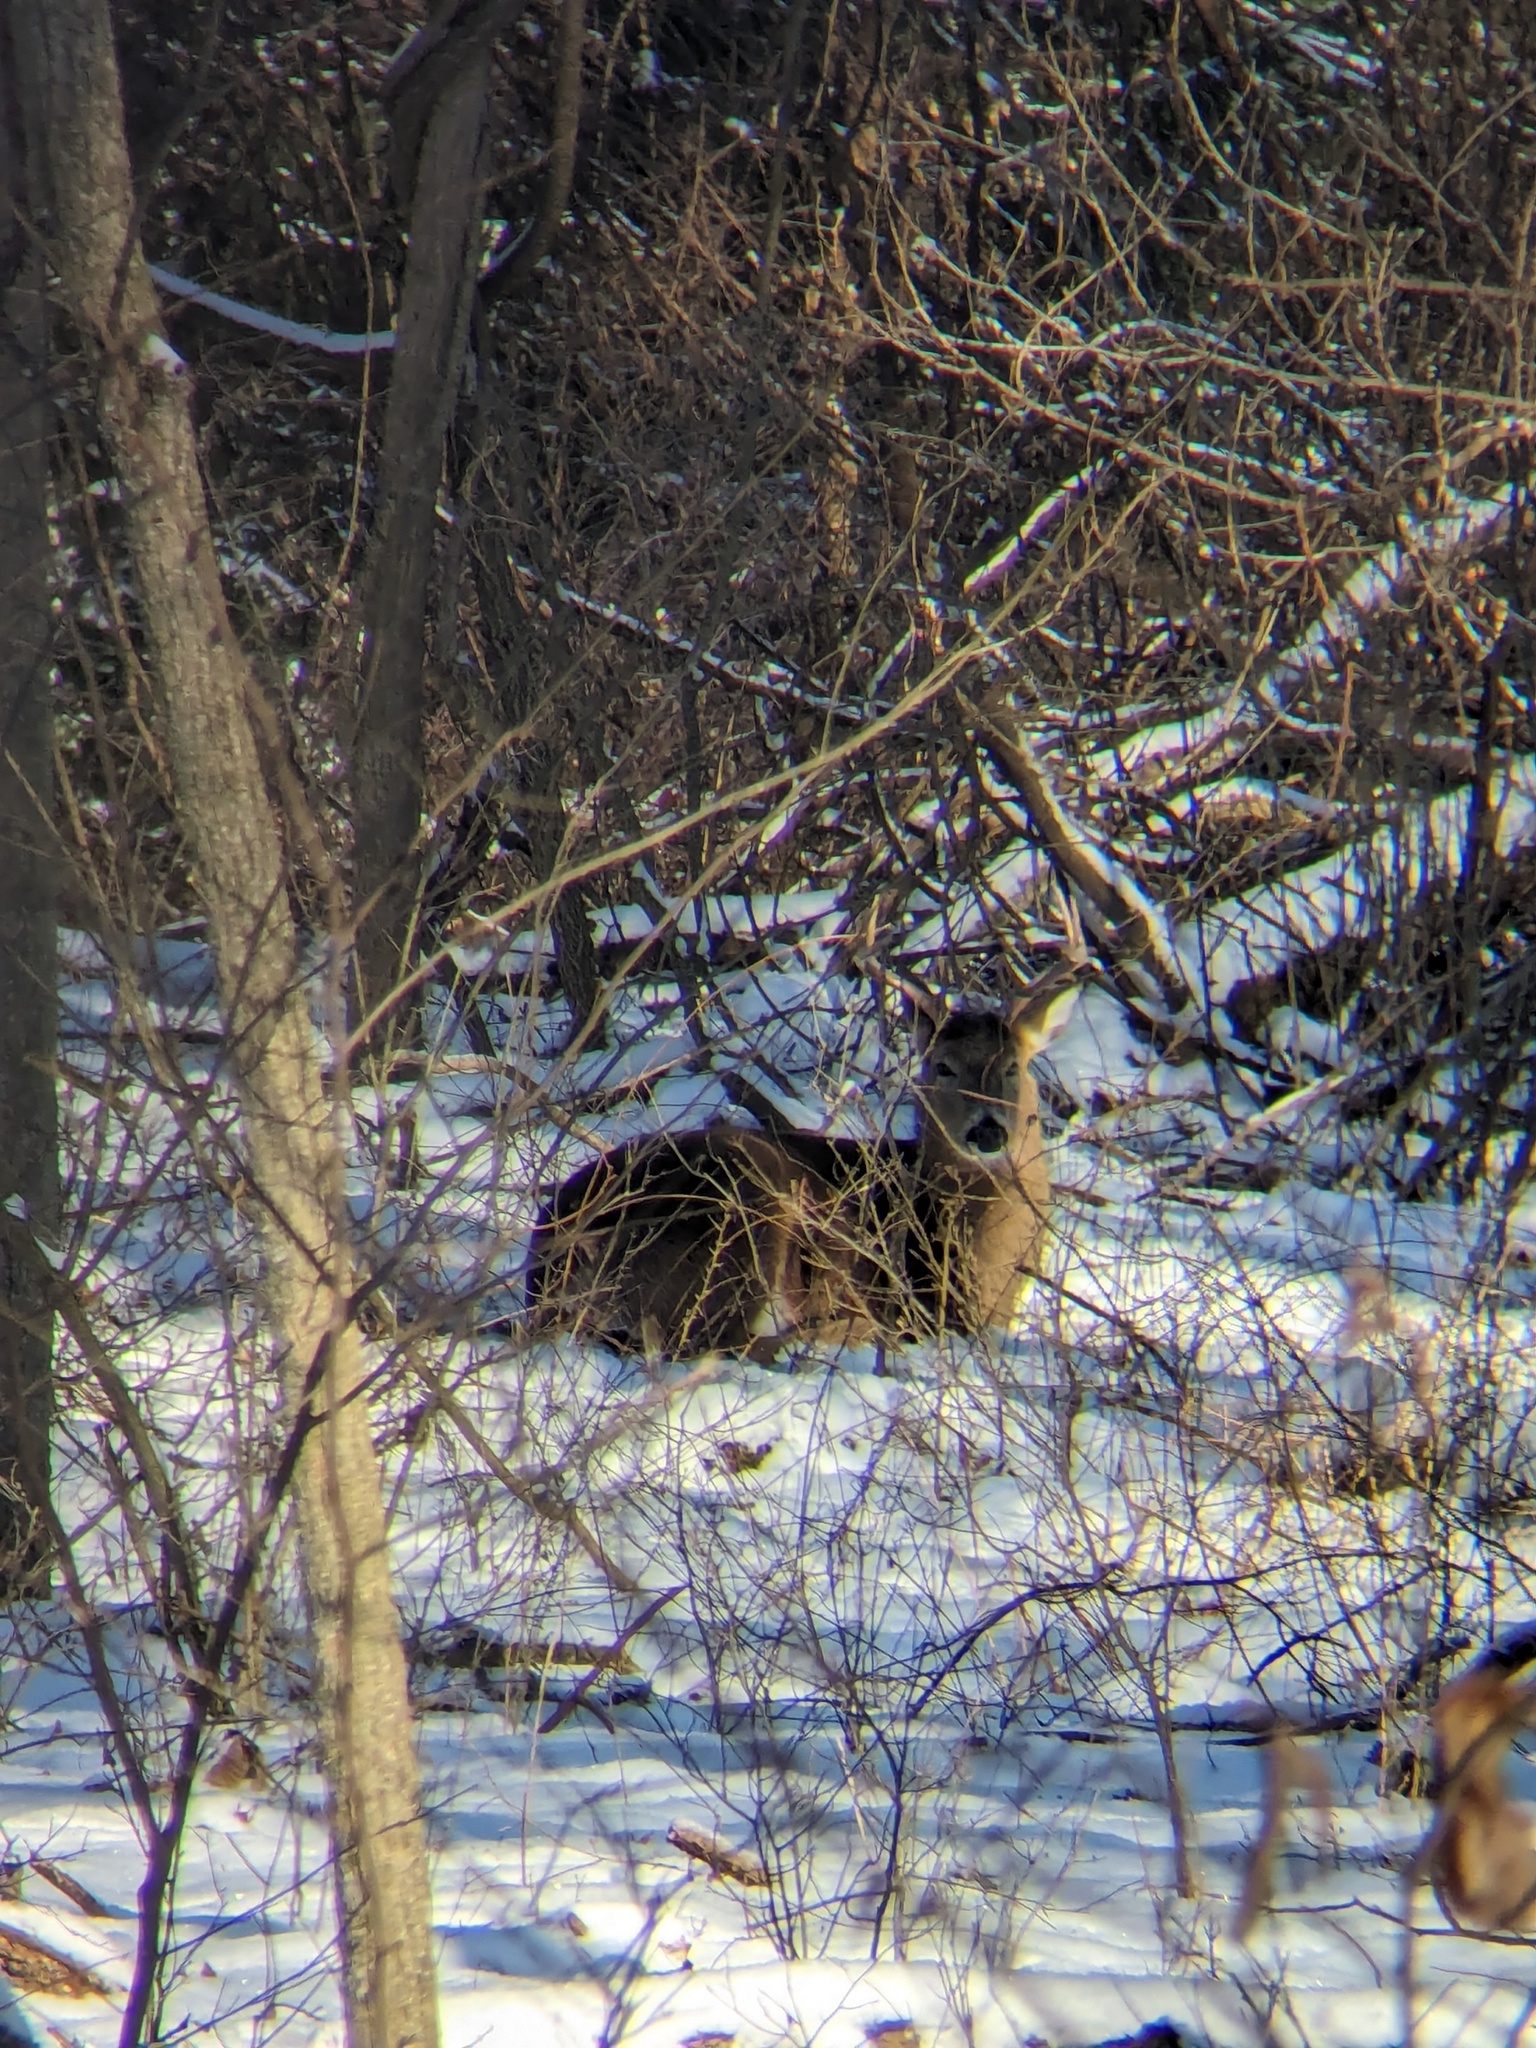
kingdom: Animalia
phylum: Chordata
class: Mammalia
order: Artiodactyla
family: Cervidae
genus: Odocoileus
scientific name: Odocoileus virginianus
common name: White-tailed deer
